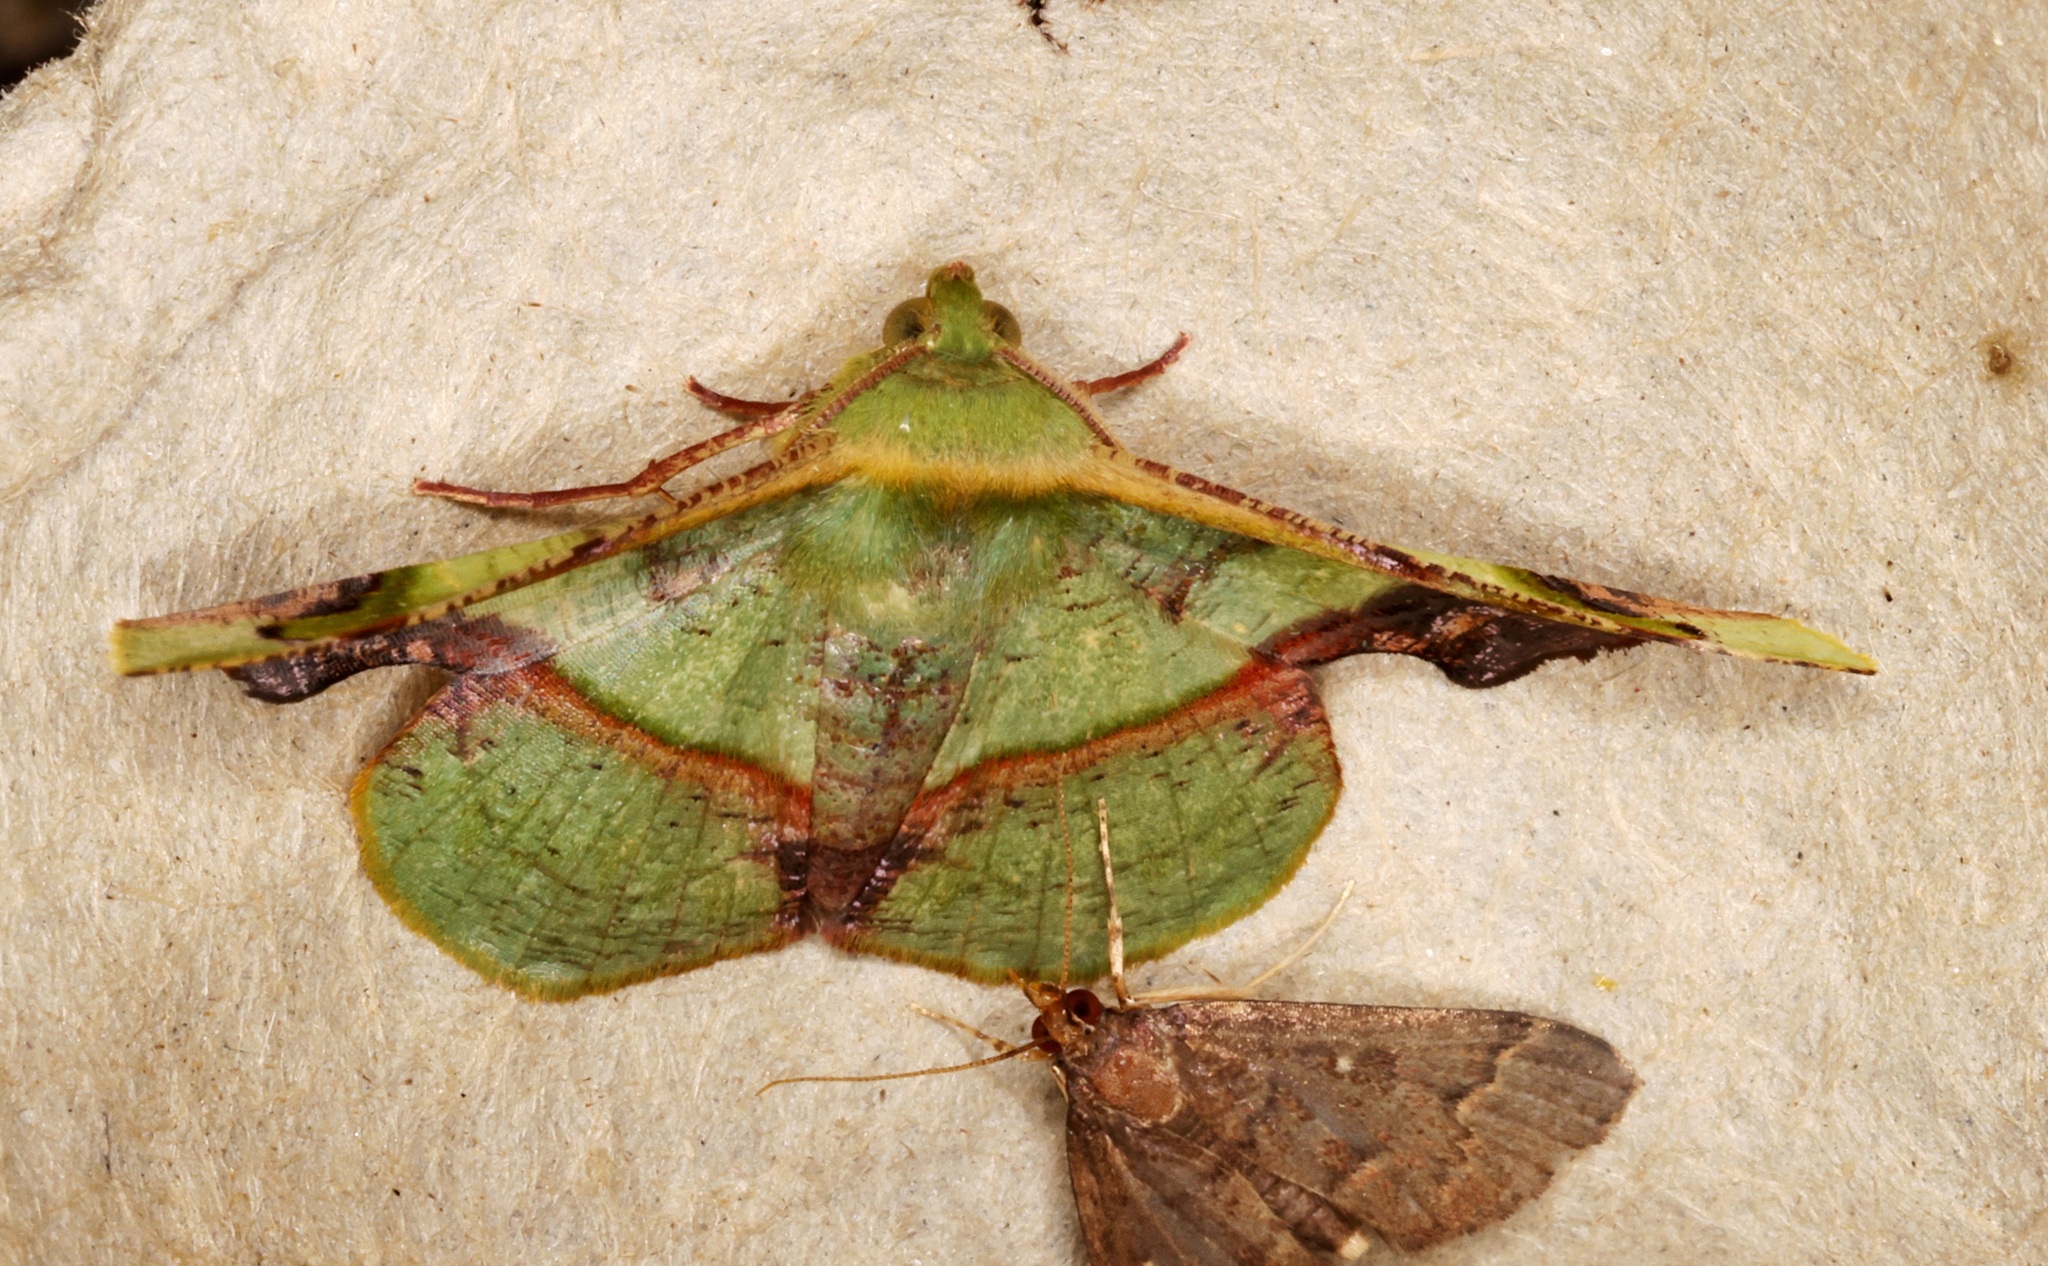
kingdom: Animalia
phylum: Arthropoda
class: Insecta
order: Lepidoptera
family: Geometridae
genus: Fascellina
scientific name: Fascellina plagiata
